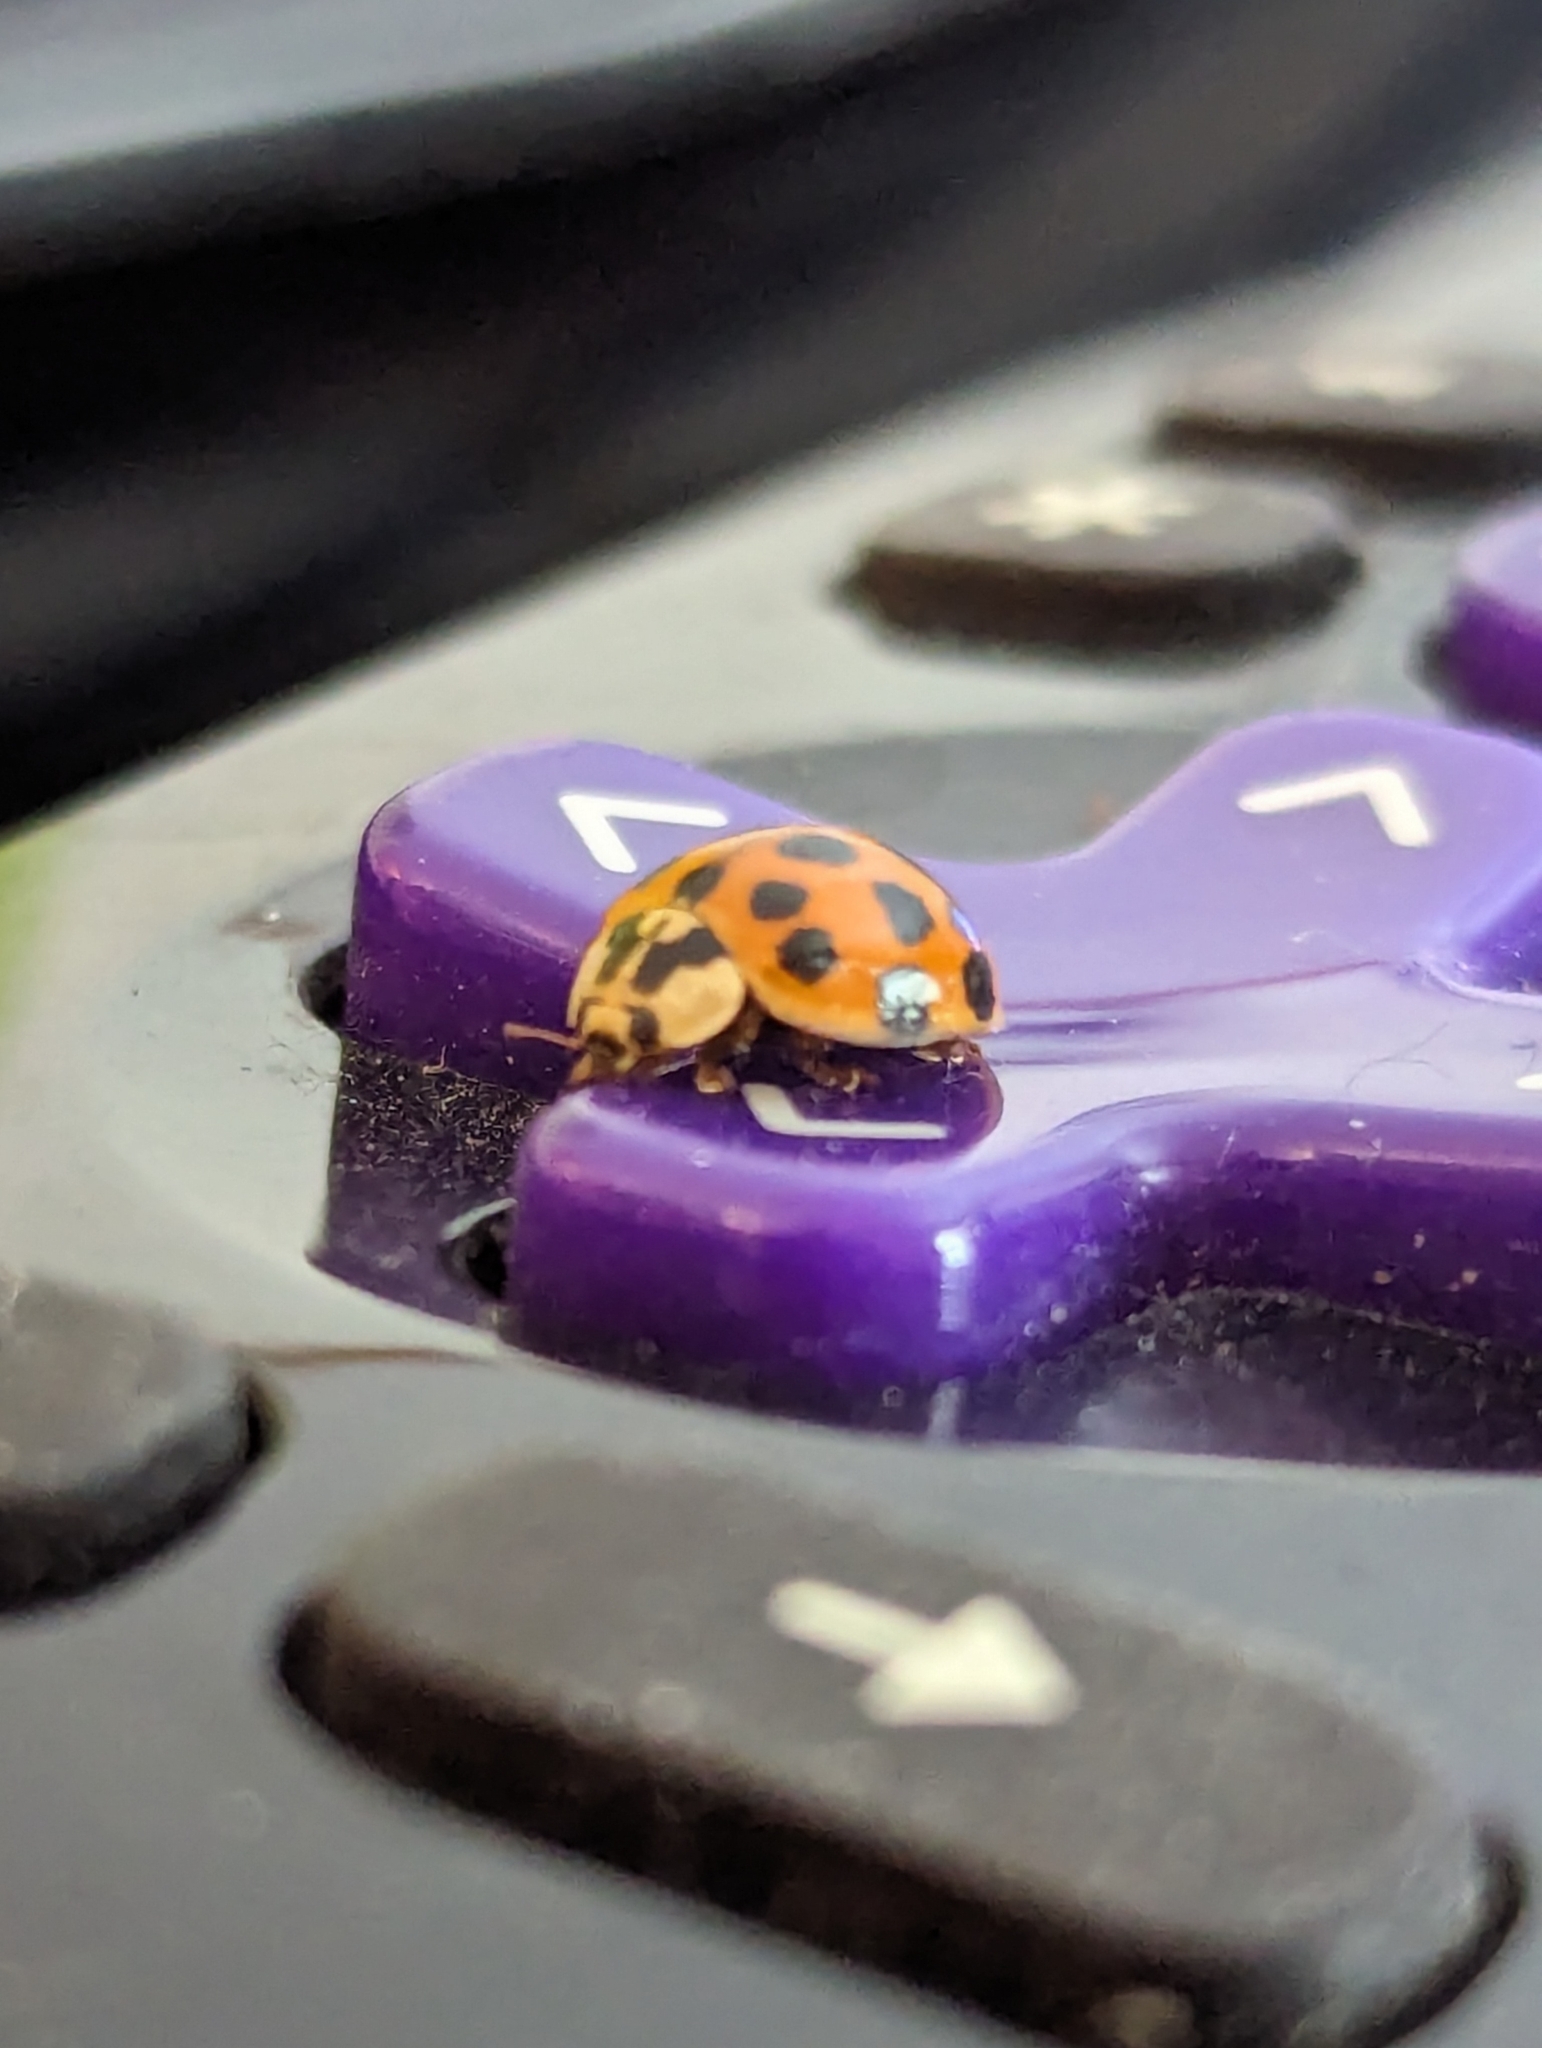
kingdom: Animalia
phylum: Arthropoda
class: Insecta
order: Coleoptera
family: Coccinellidae
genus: Harmonia
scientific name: Harmonia axyridis
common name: Harlequin ladybird
